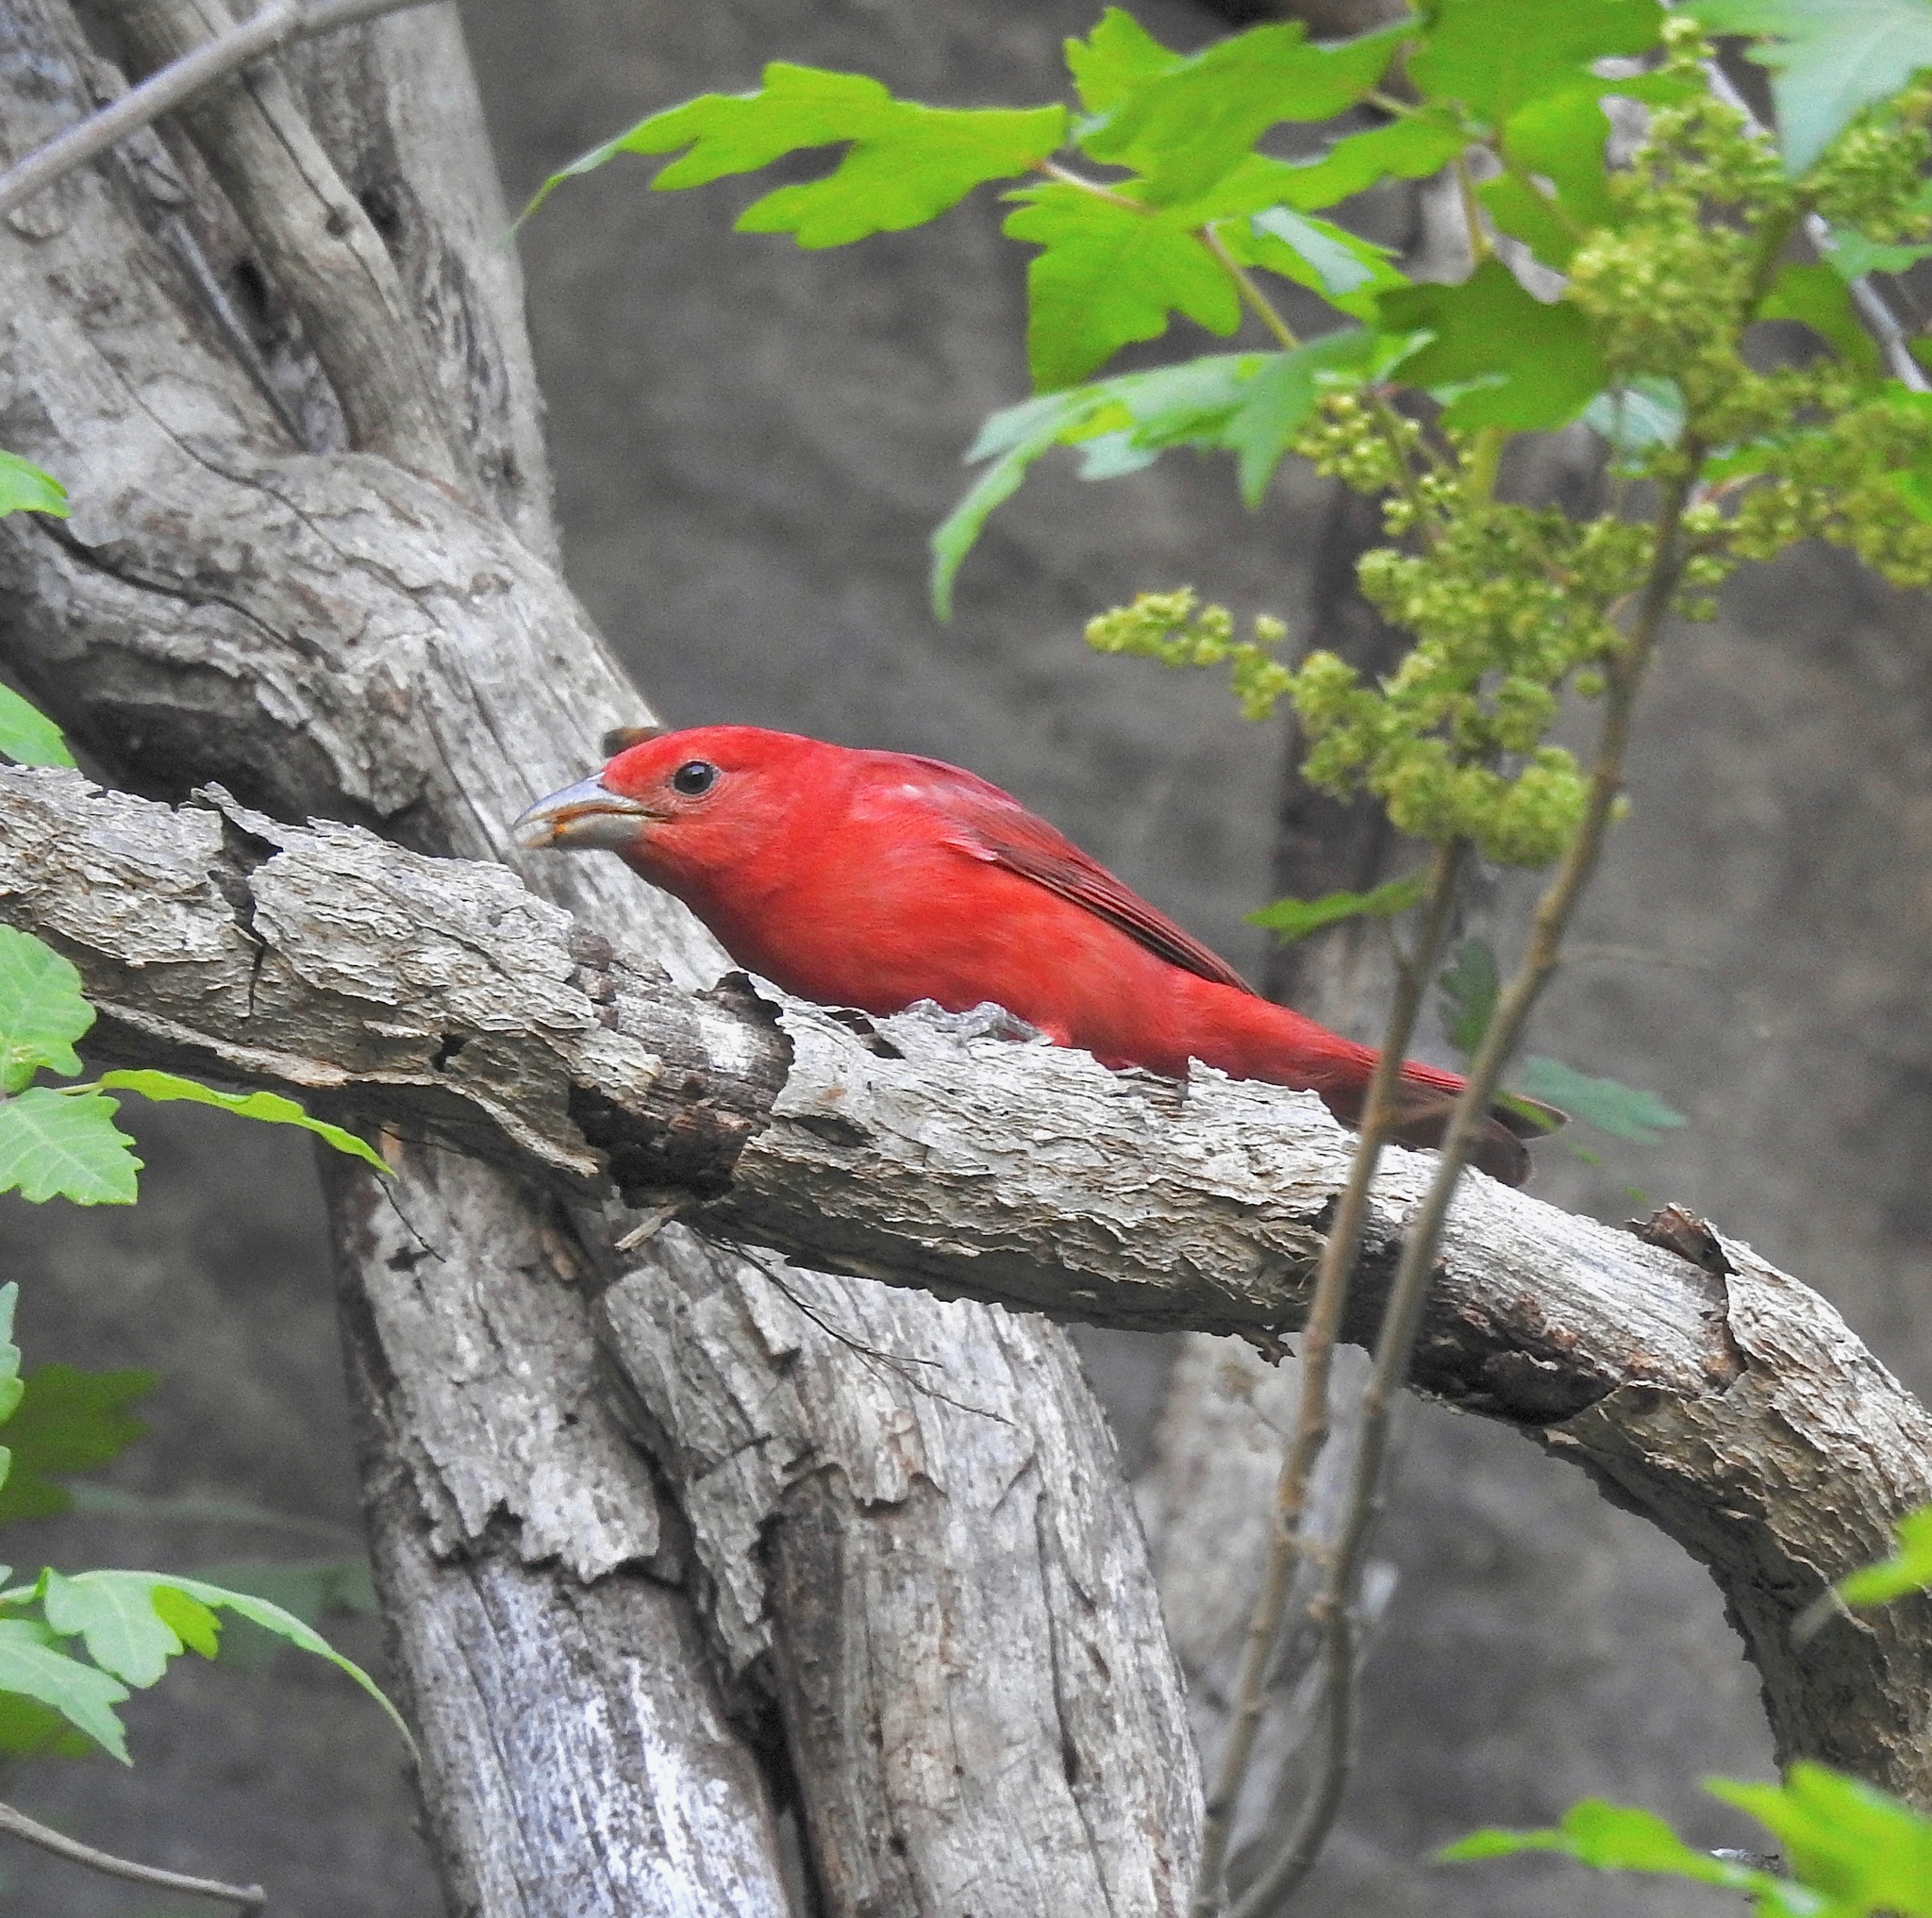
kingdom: Animalia
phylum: Chordata
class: Aves
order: Passeriformes
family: Cardinalidae
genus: Piranga
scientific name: Piranga rubra
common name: Summer tanager
